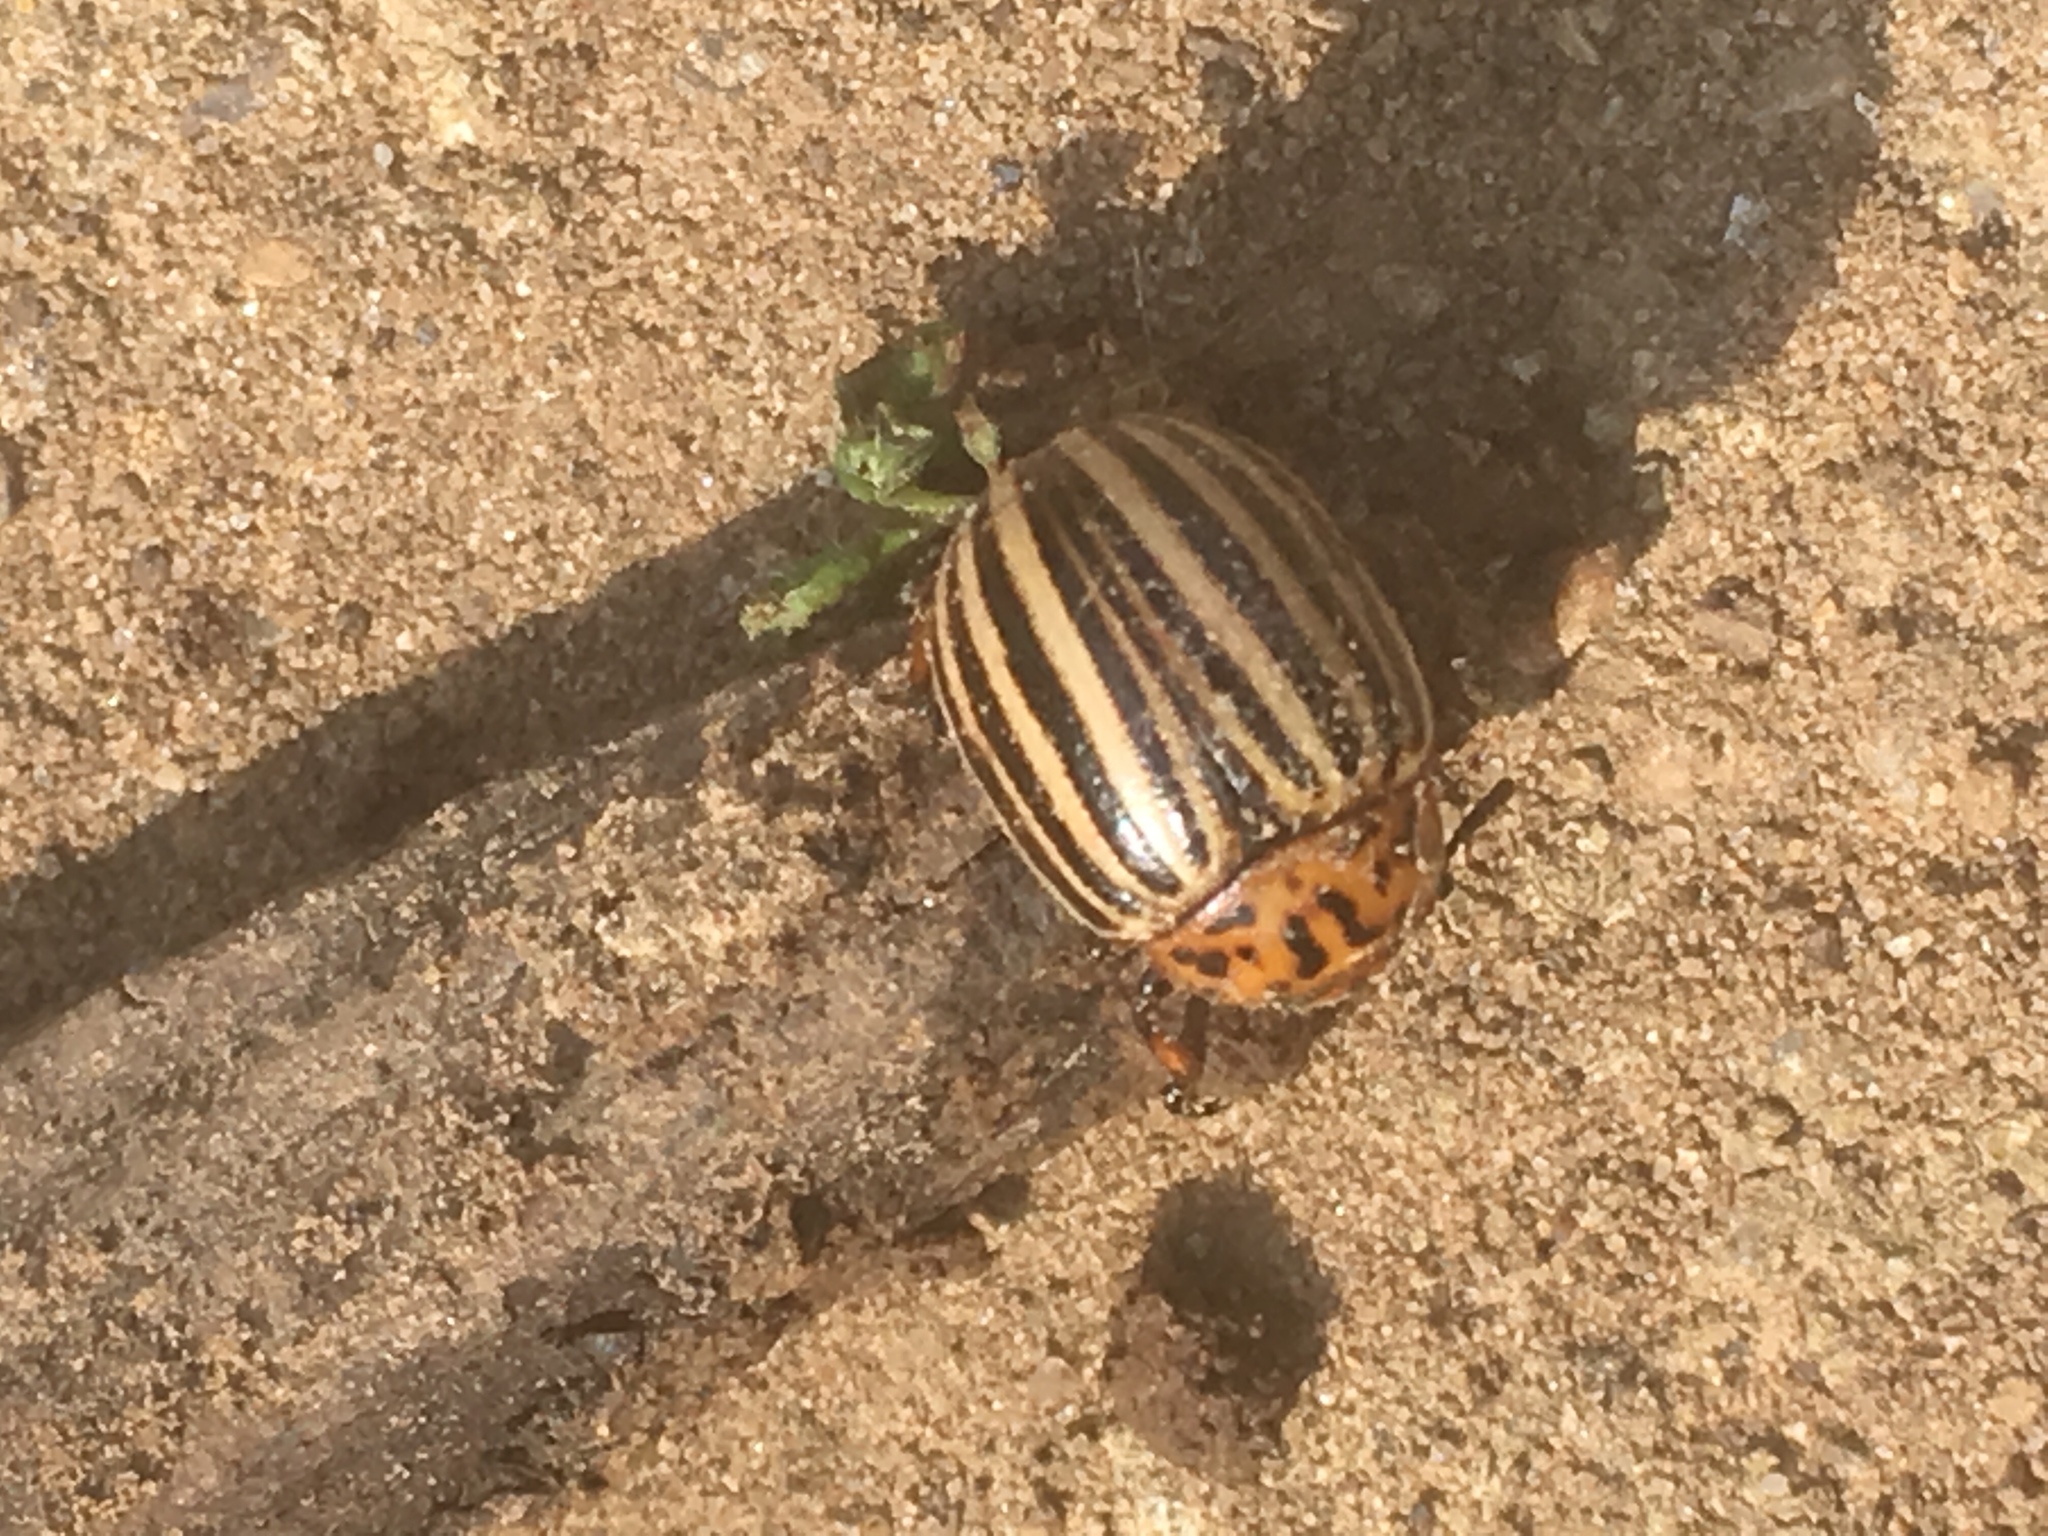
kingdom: Animalia
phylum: Arthropoda
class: Insecta
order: Coleoptera
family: Chrysomelidae
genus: Leptinotarsa
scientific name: Leptinotarsa decemlineata
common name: Colorado potato beetle
